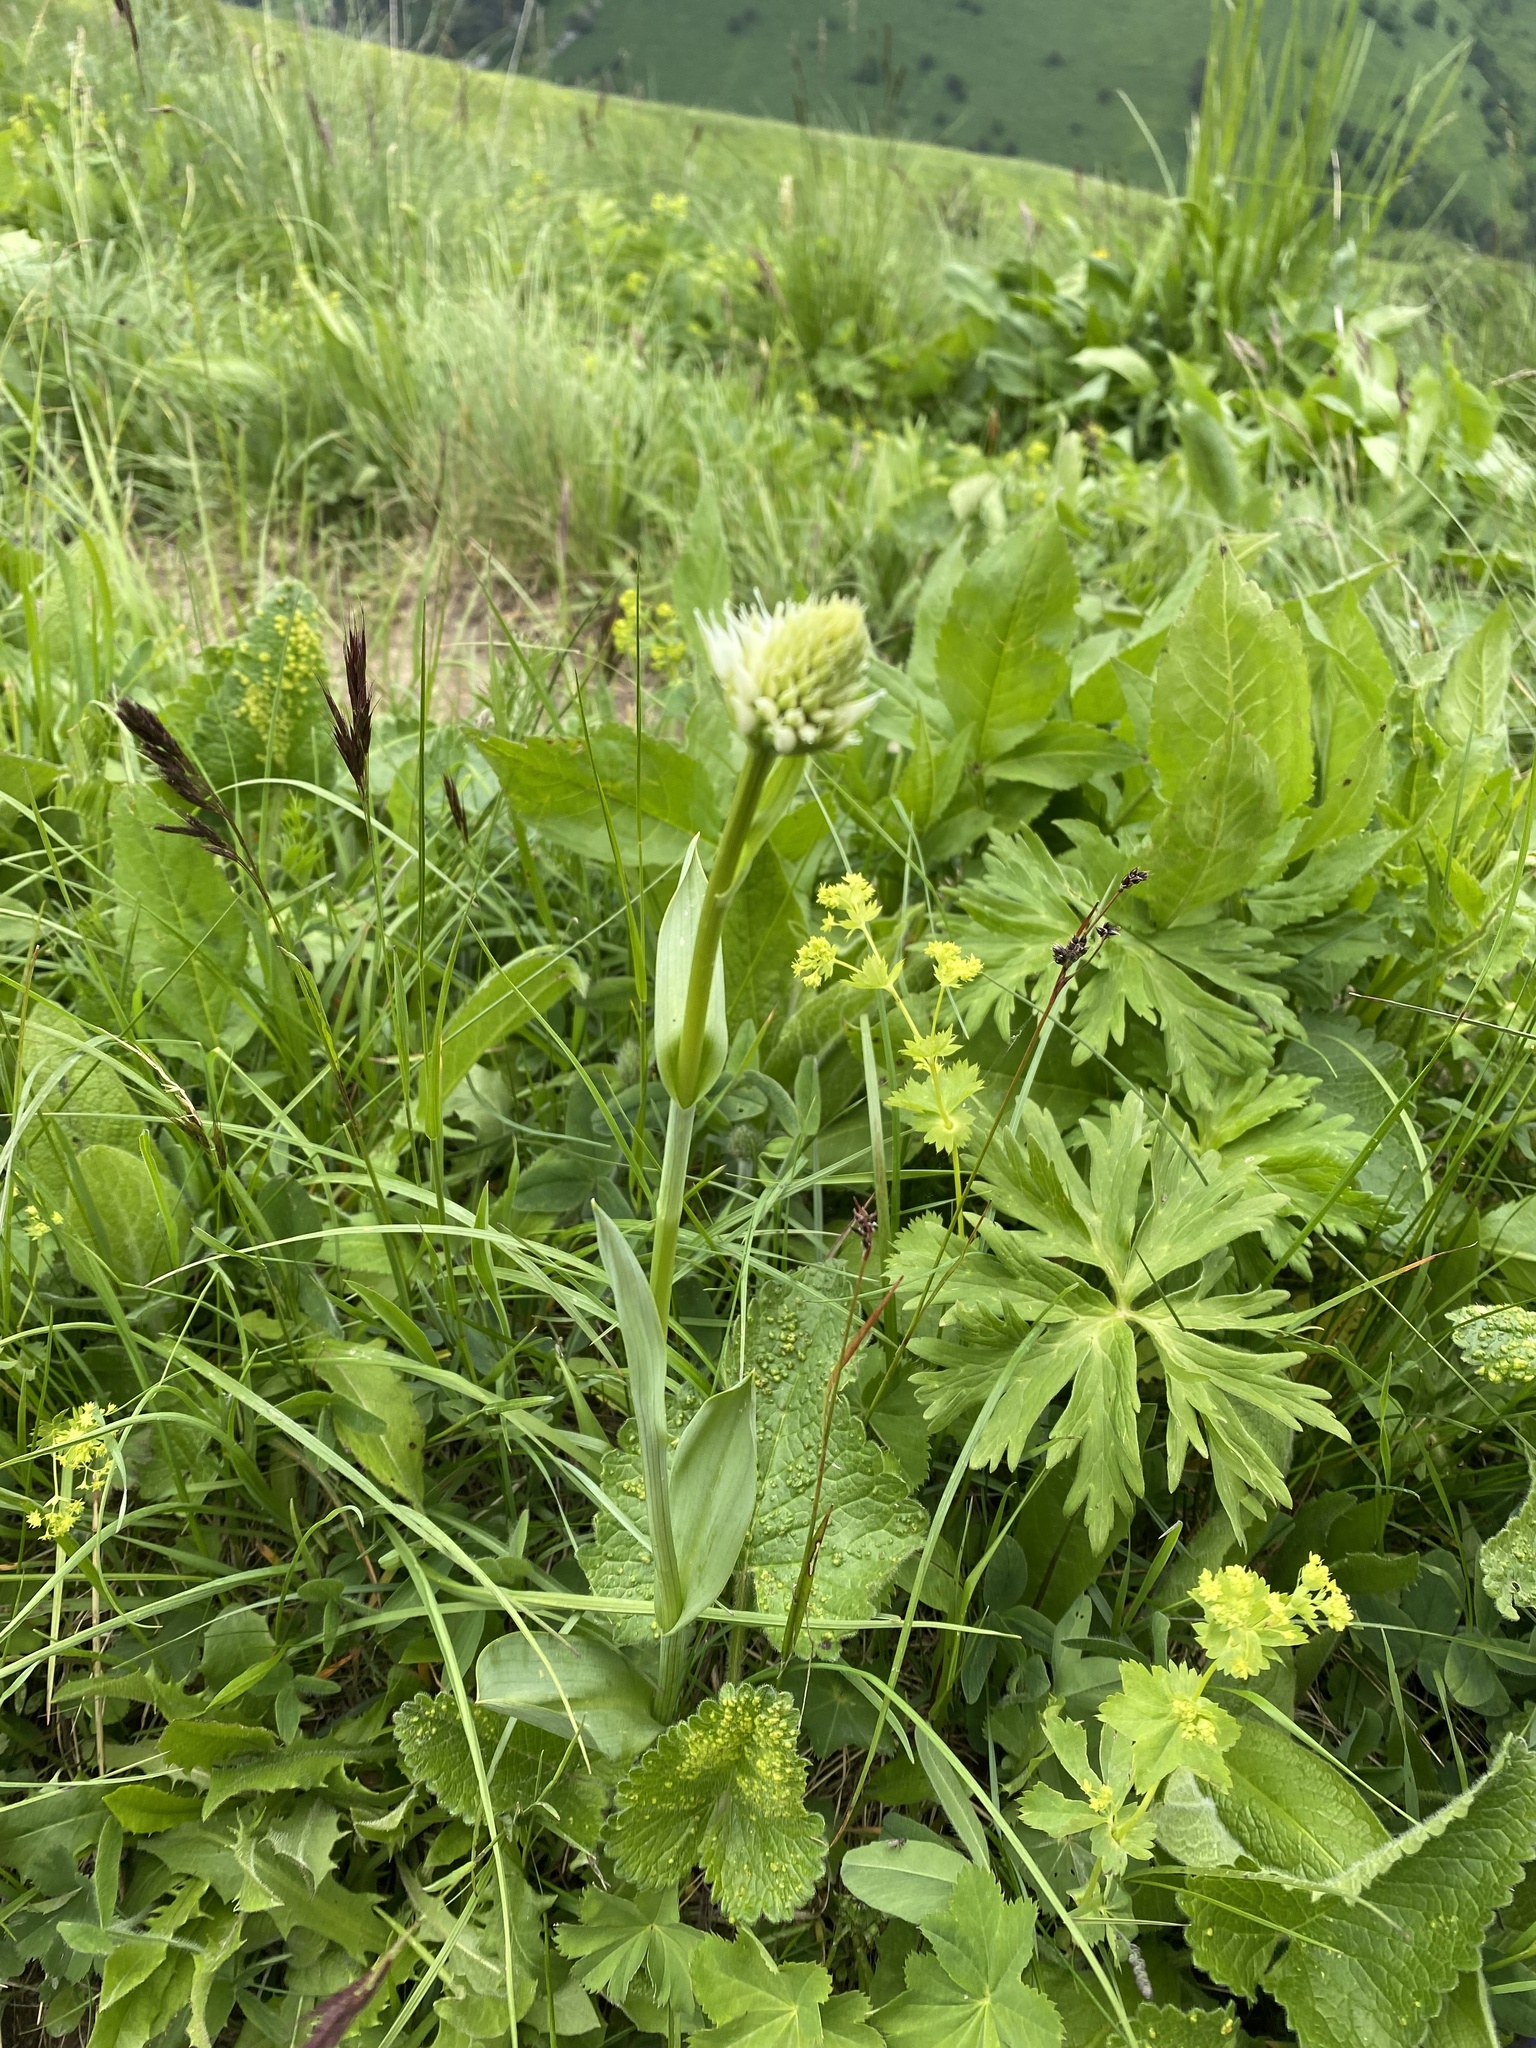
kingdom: Plantae
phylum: Tracheophyta
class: Liliopsida
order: Asparagales
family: Orchidaceae
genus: Traunsteinera
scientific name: Traunsteinera sphaerica
